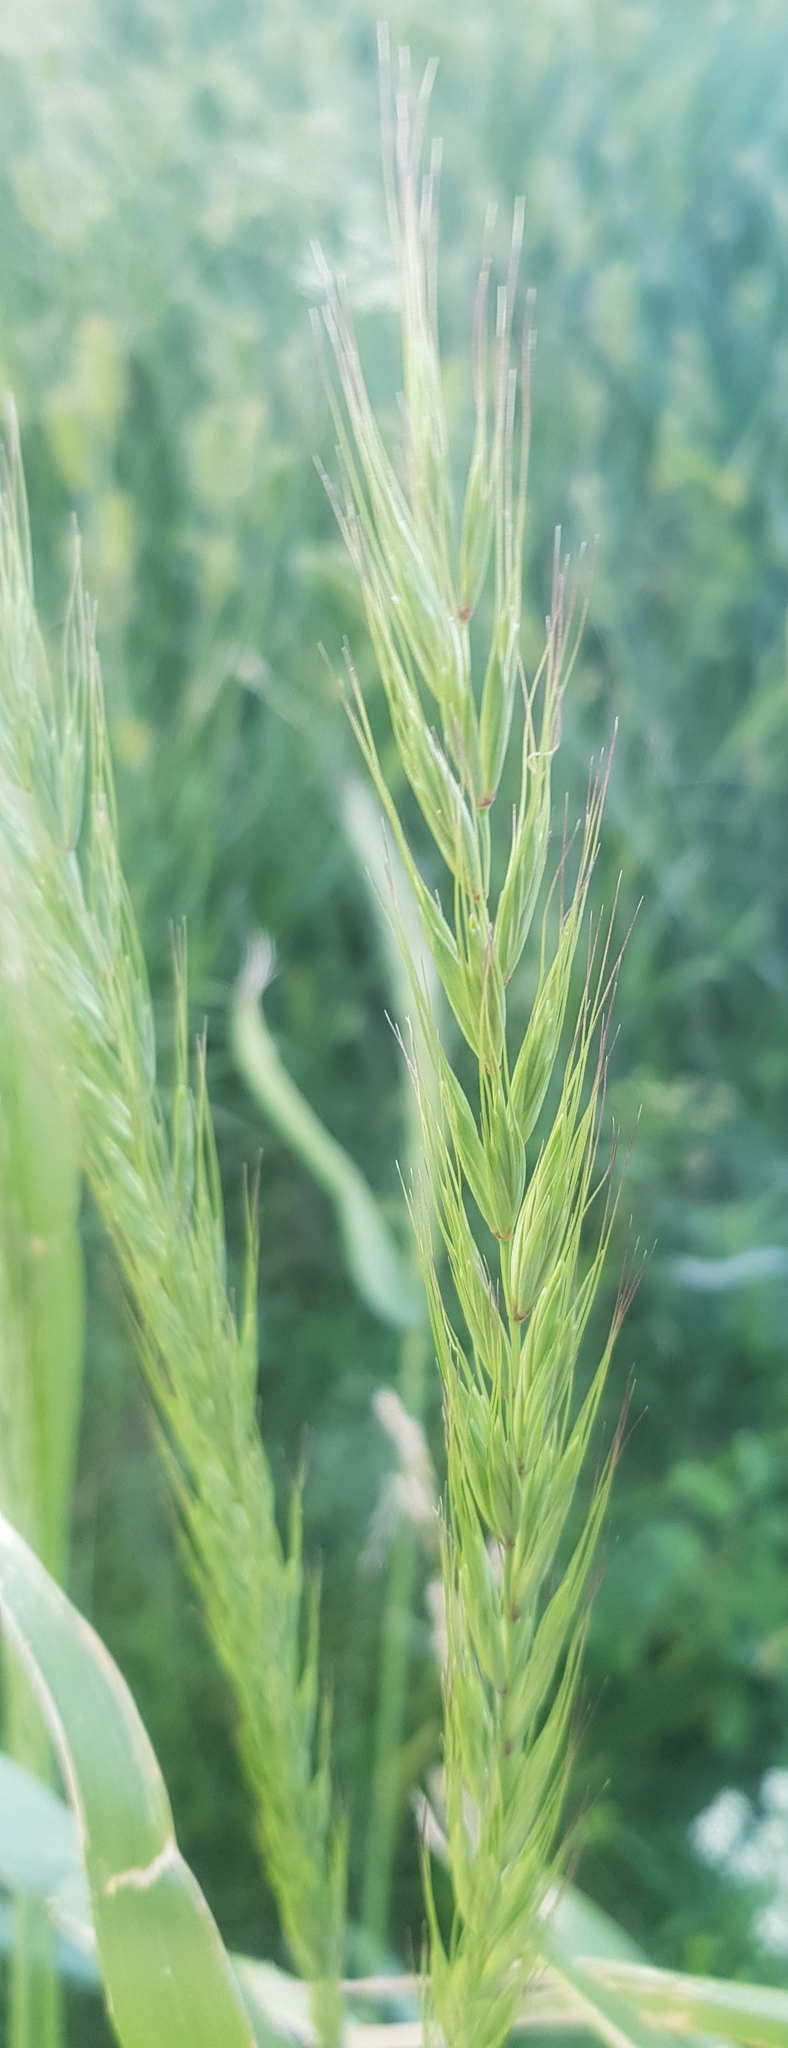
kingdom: Plantae
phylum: Tracheophyta
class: Liliopsida
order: Poales
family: Poaceae
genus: Elymus
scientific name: Elymus repens
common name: Quackgrass
